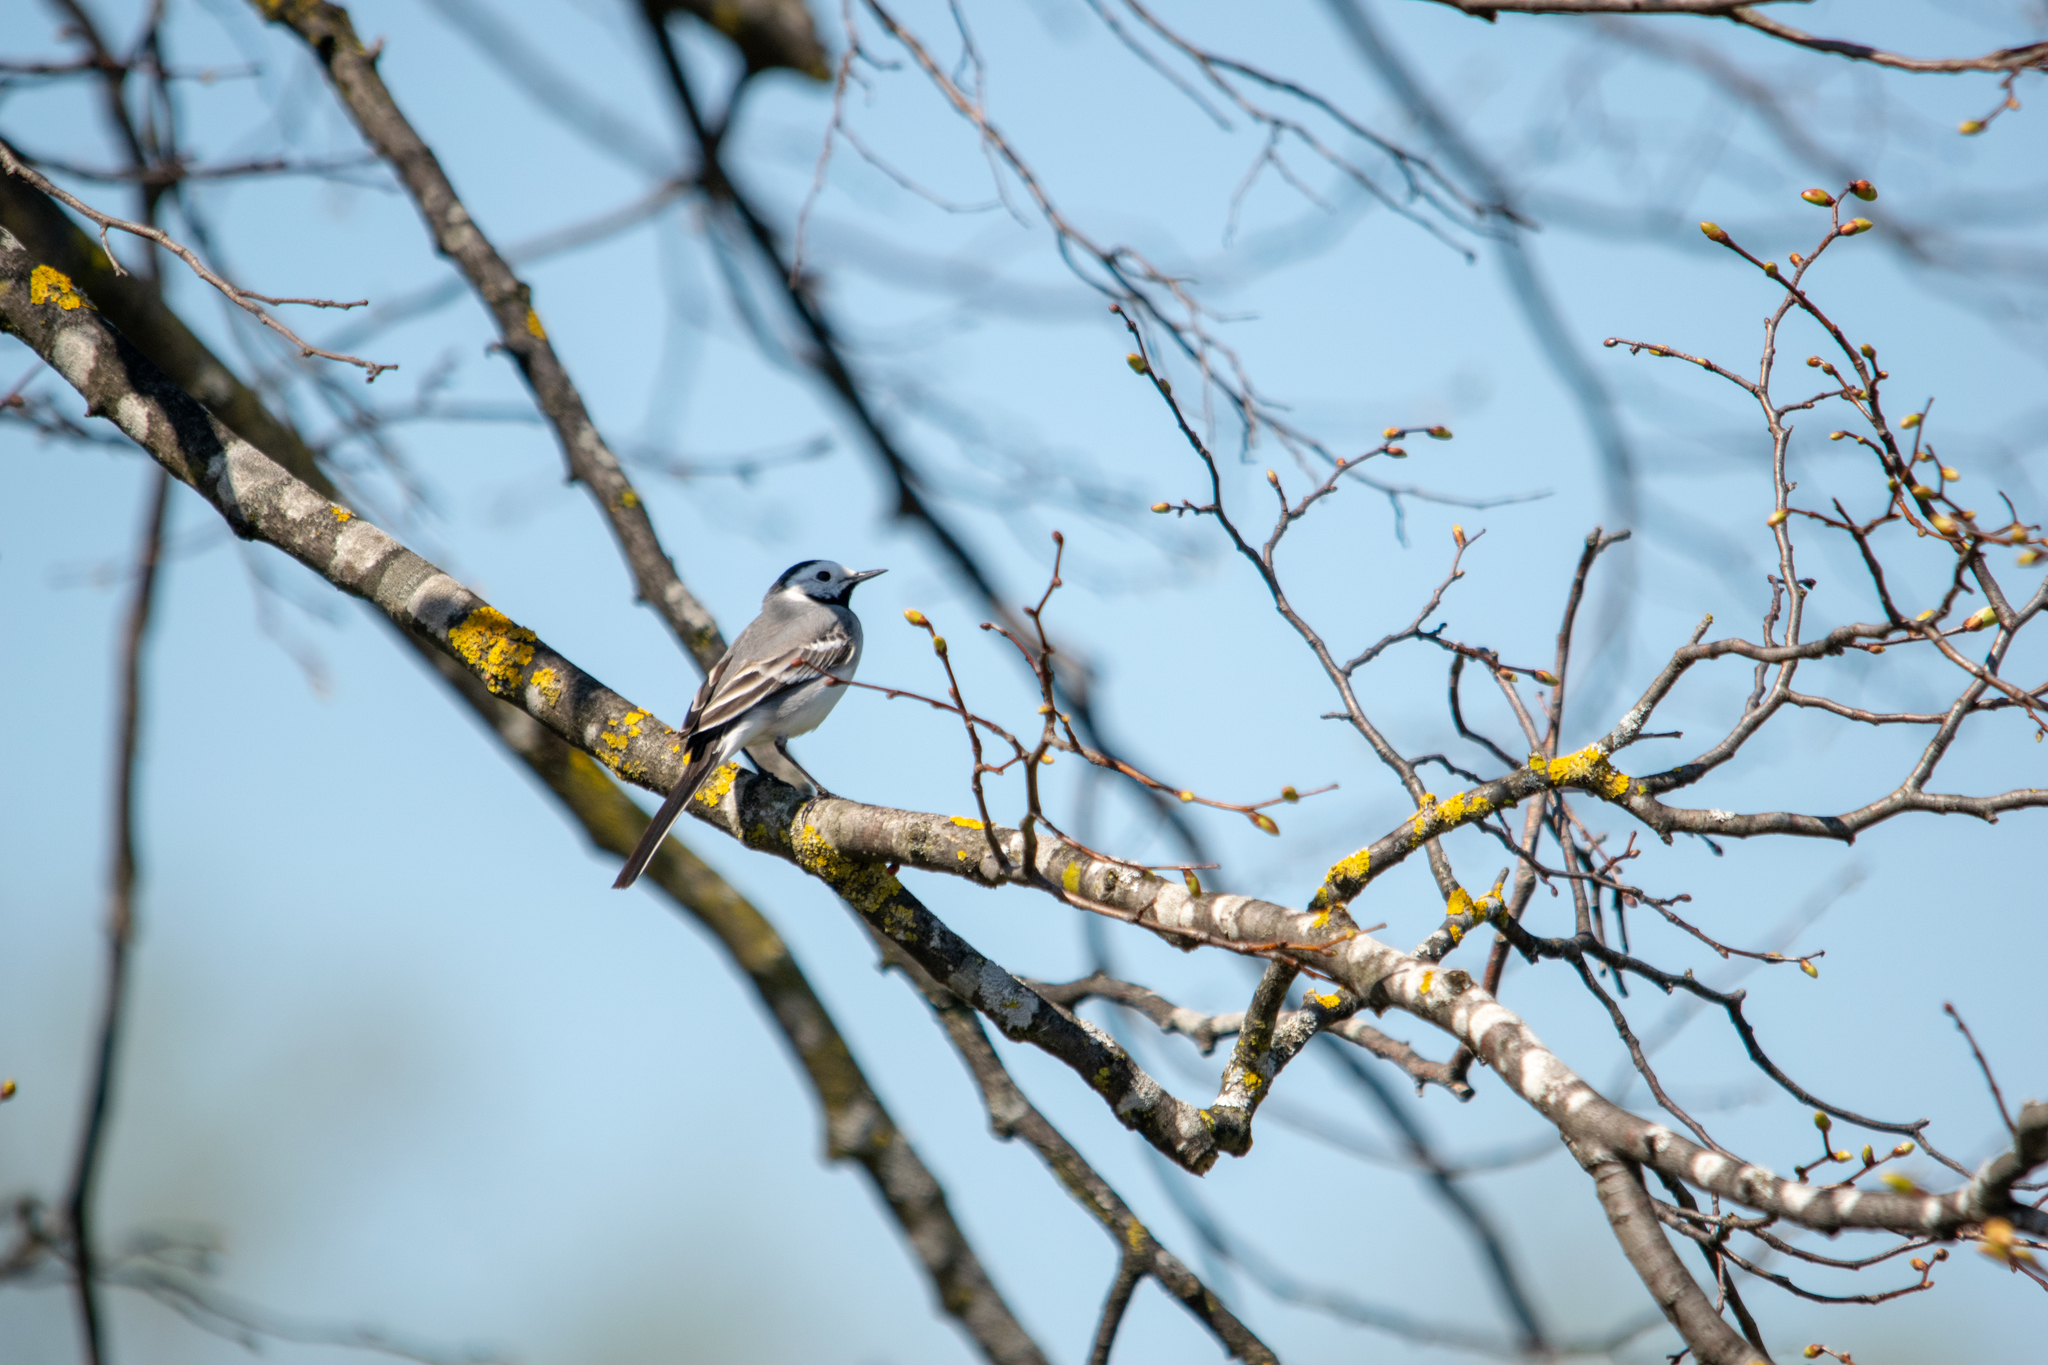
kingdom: Animalia
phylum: Chordata
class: Aves
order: Passeriformes
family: Motacillidae
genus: Motacilla
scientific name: Motacilla alba
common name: White wagtail
